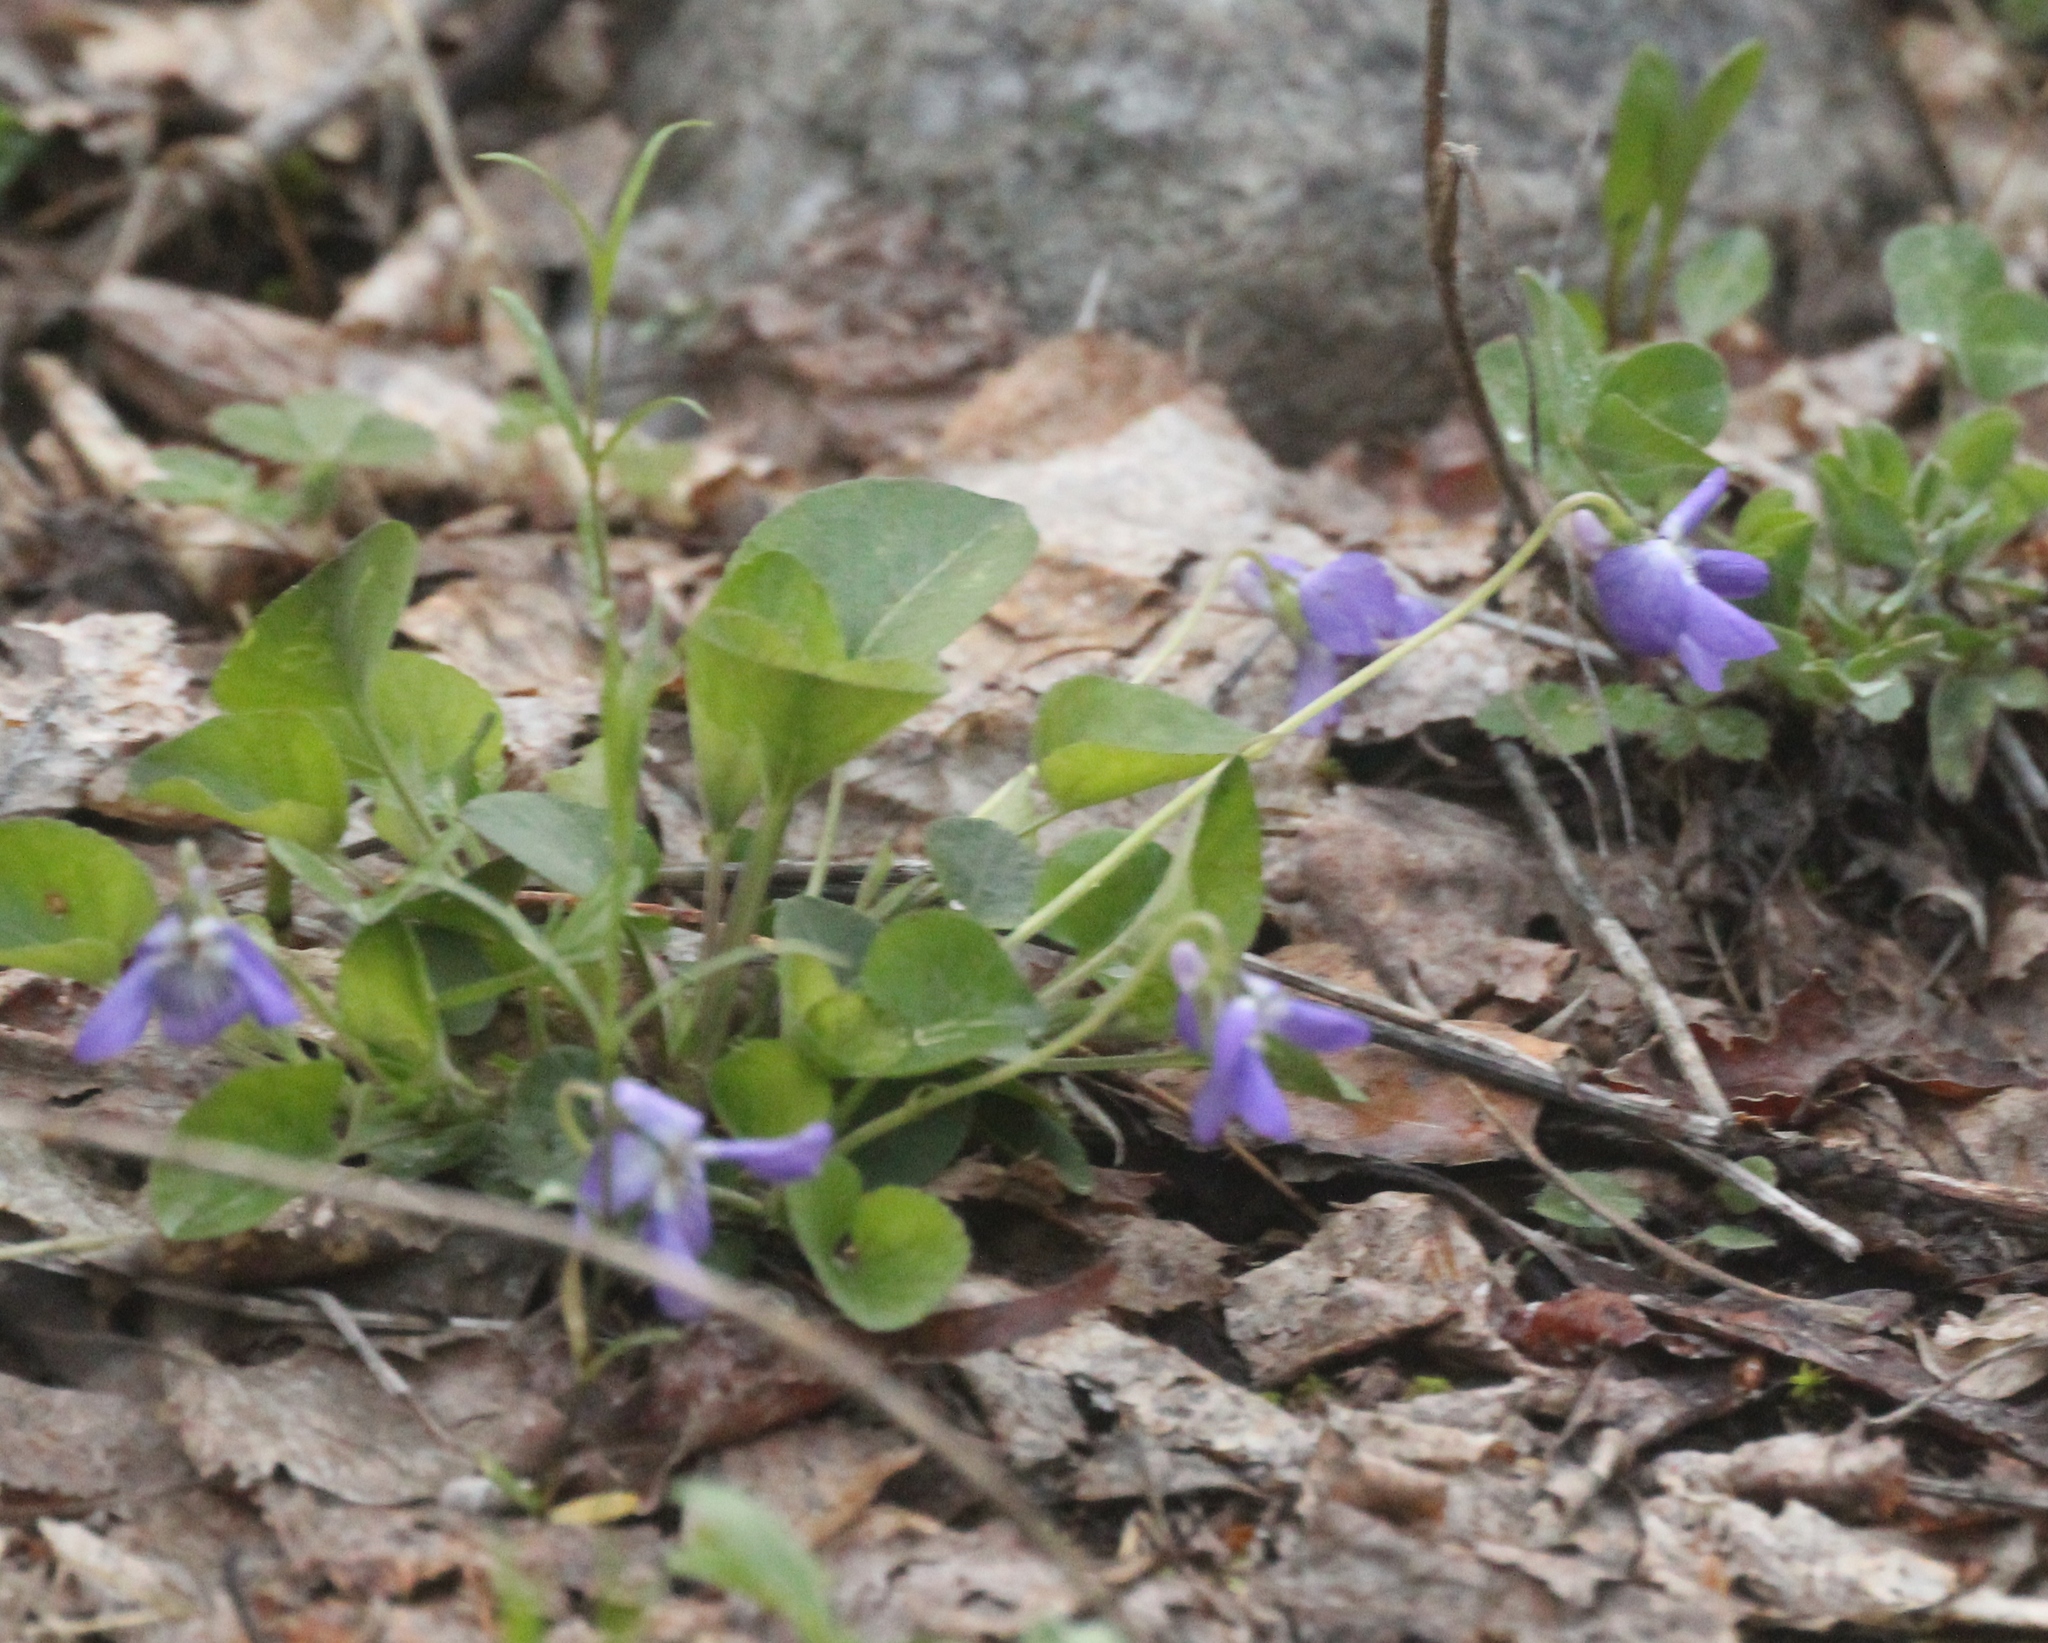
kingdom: Plantae
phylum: Tracheophyta
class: Magnoliopsida
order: Malpighiales
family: Violaceae
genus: Viola
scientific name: Viola odorata
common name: Sweet violet
